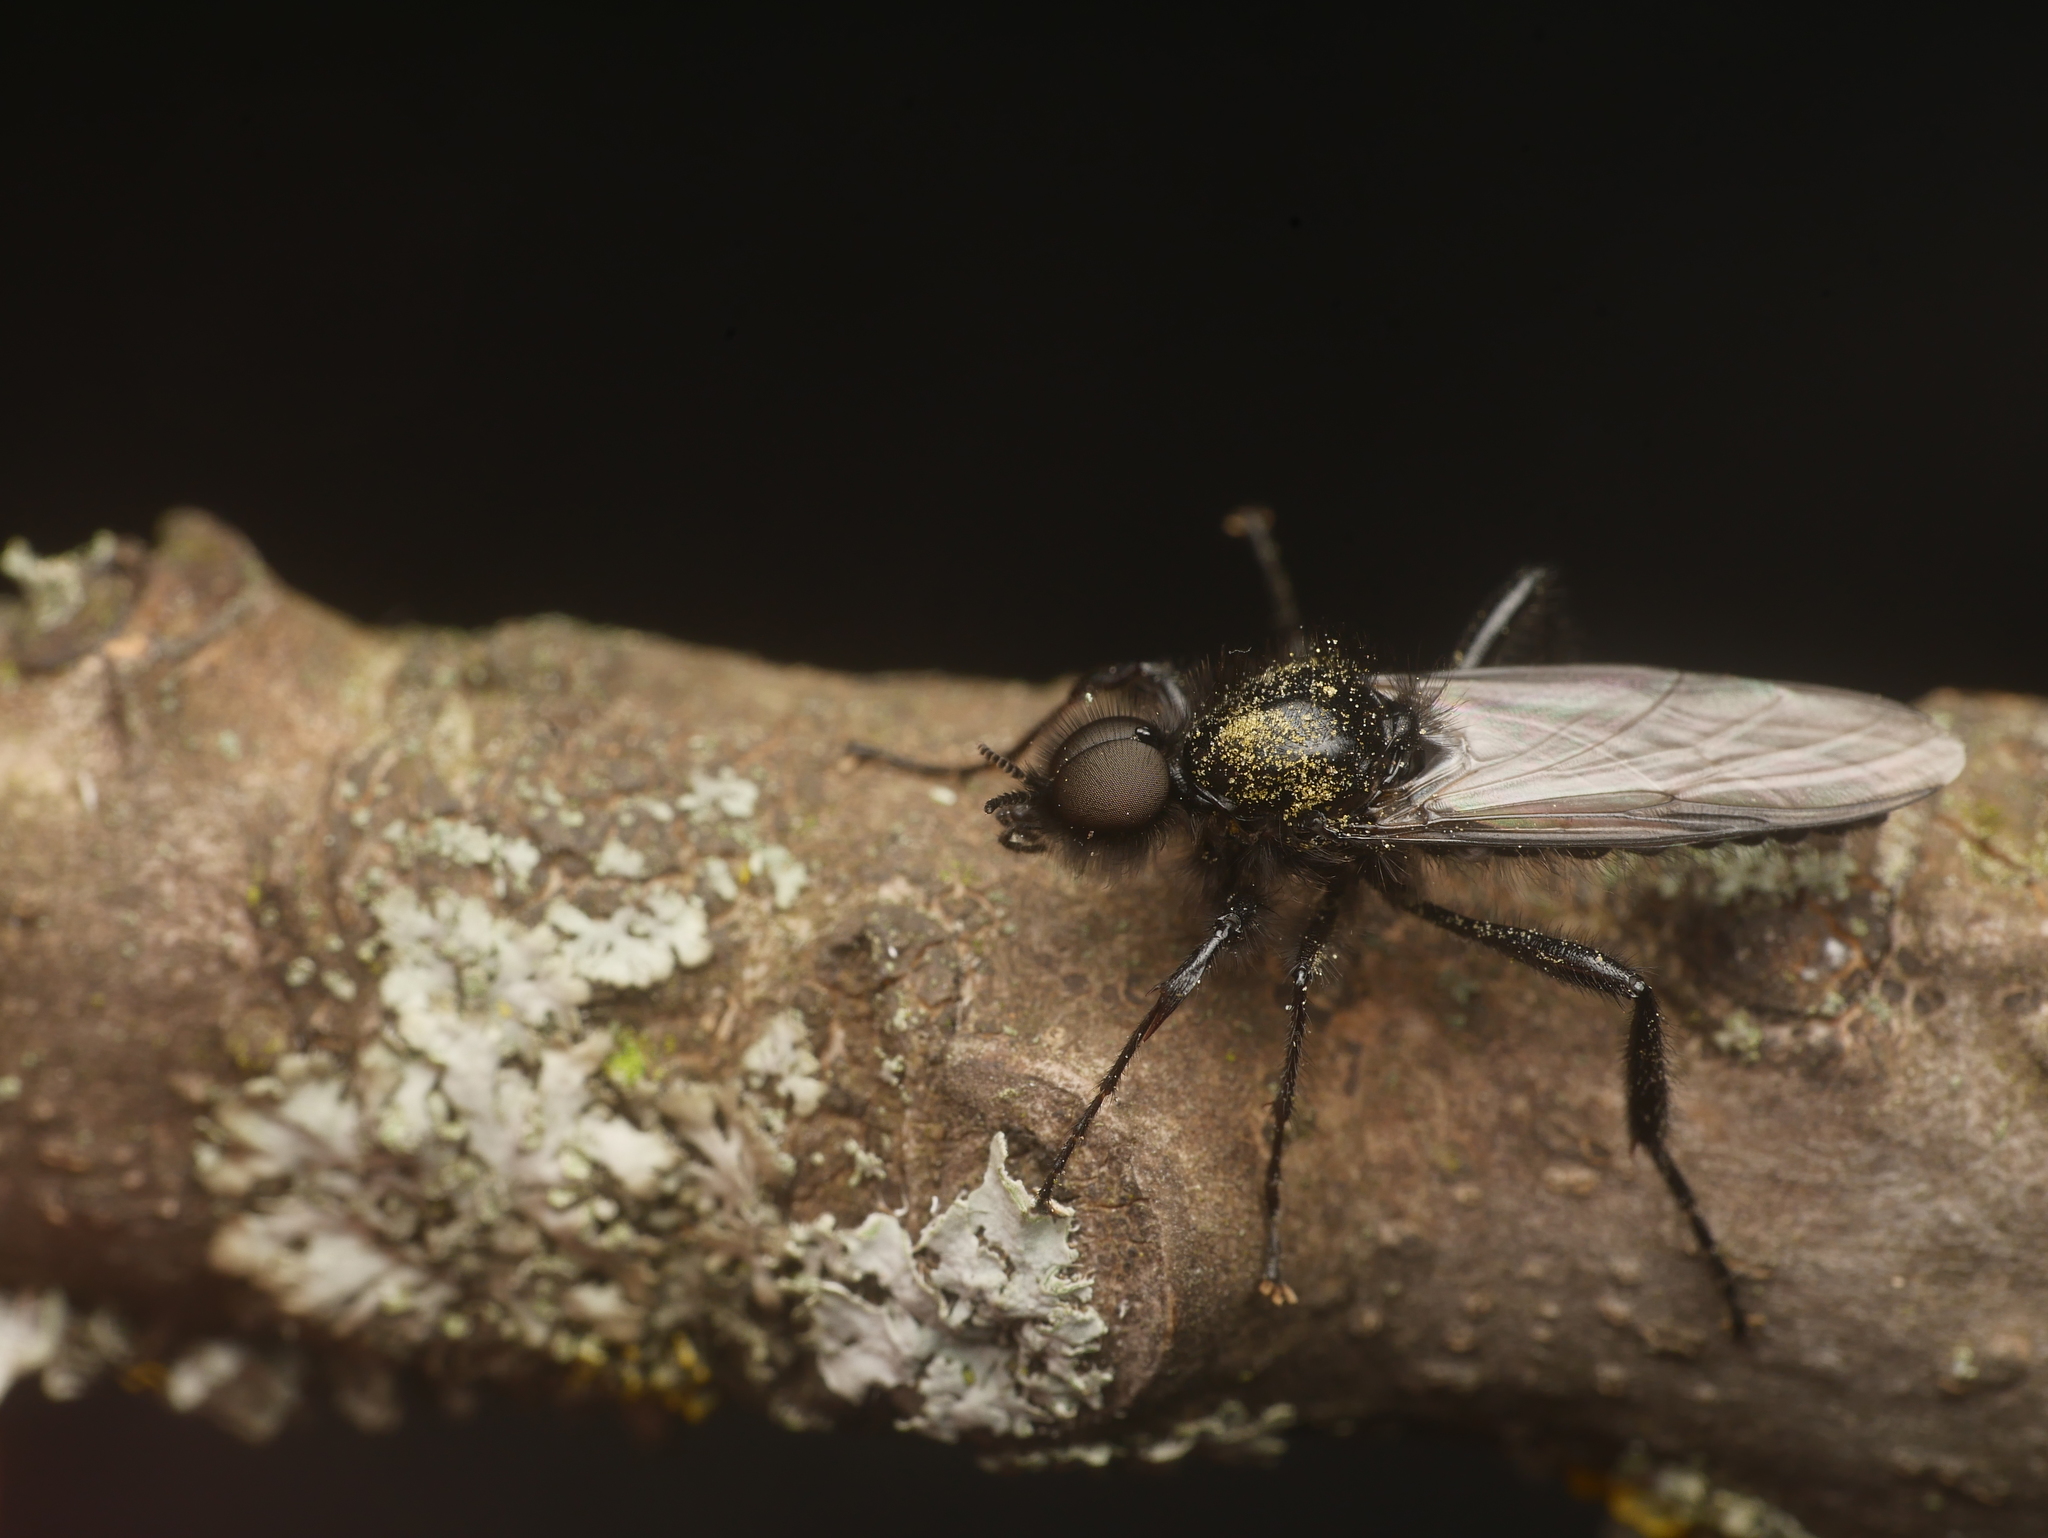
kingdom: Animalia
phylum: Arthropoda
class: Insecta
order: Diptera
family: Bibionidae
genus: Bibio
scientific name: Bibio marci
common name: St marks fly
